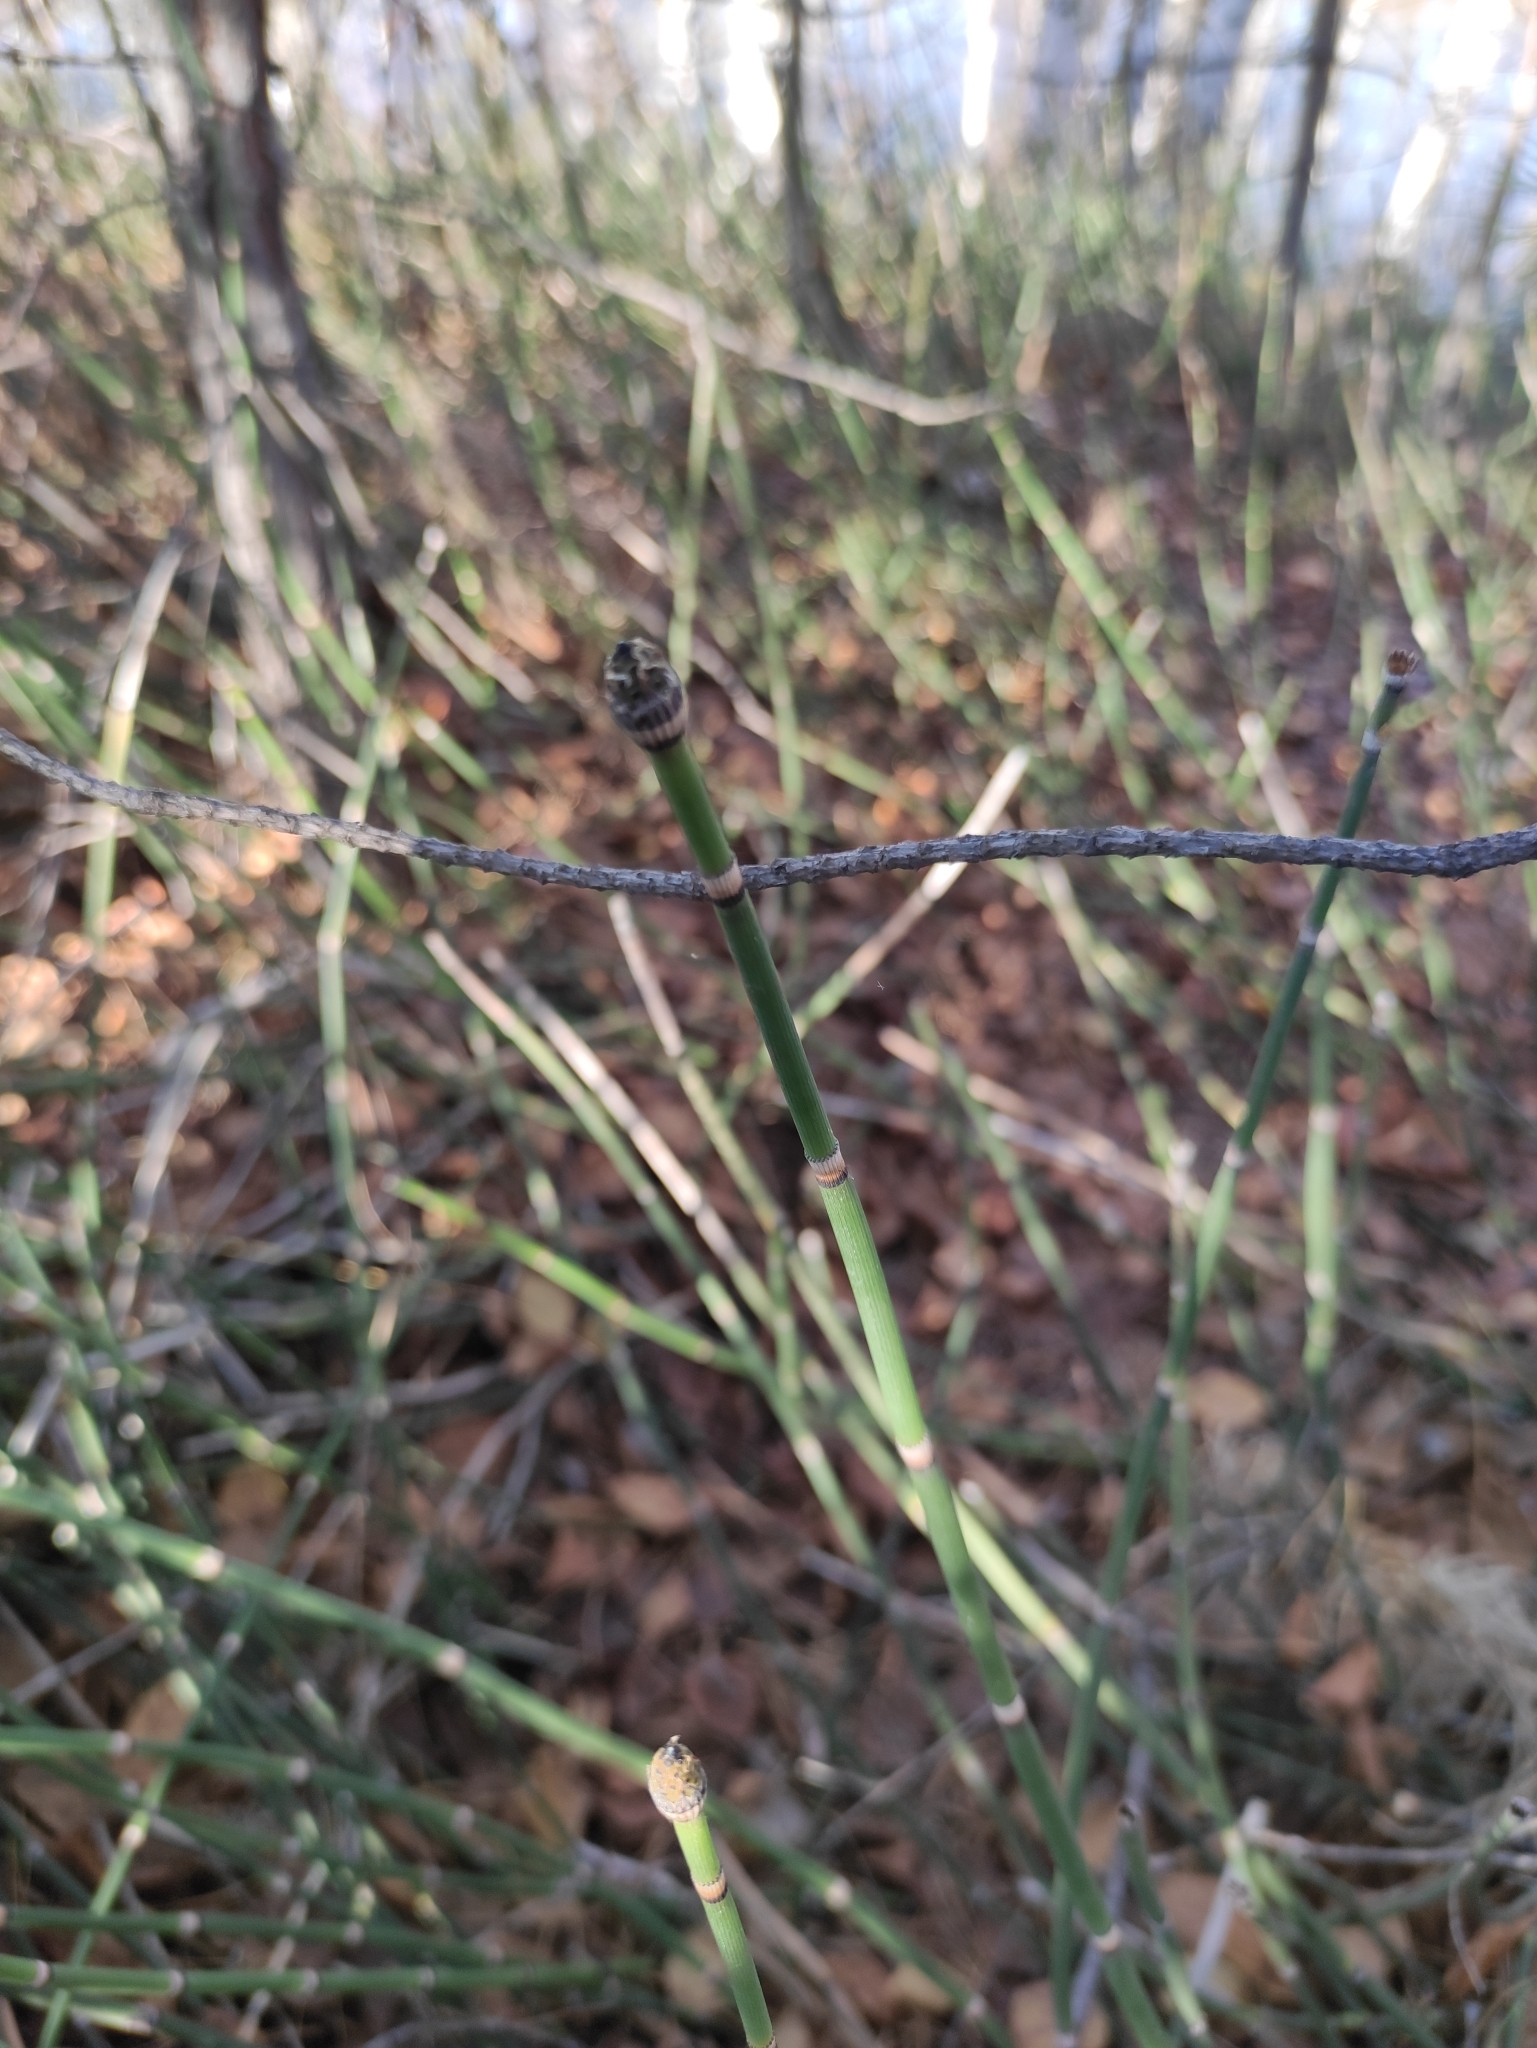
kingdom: Plantae
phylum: Tracheophyta
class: Polypodiopsida
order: Equisetales
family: Equisetaceae
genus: Equisetum
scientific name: Equisetum hyemale
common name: Rough horsetail
